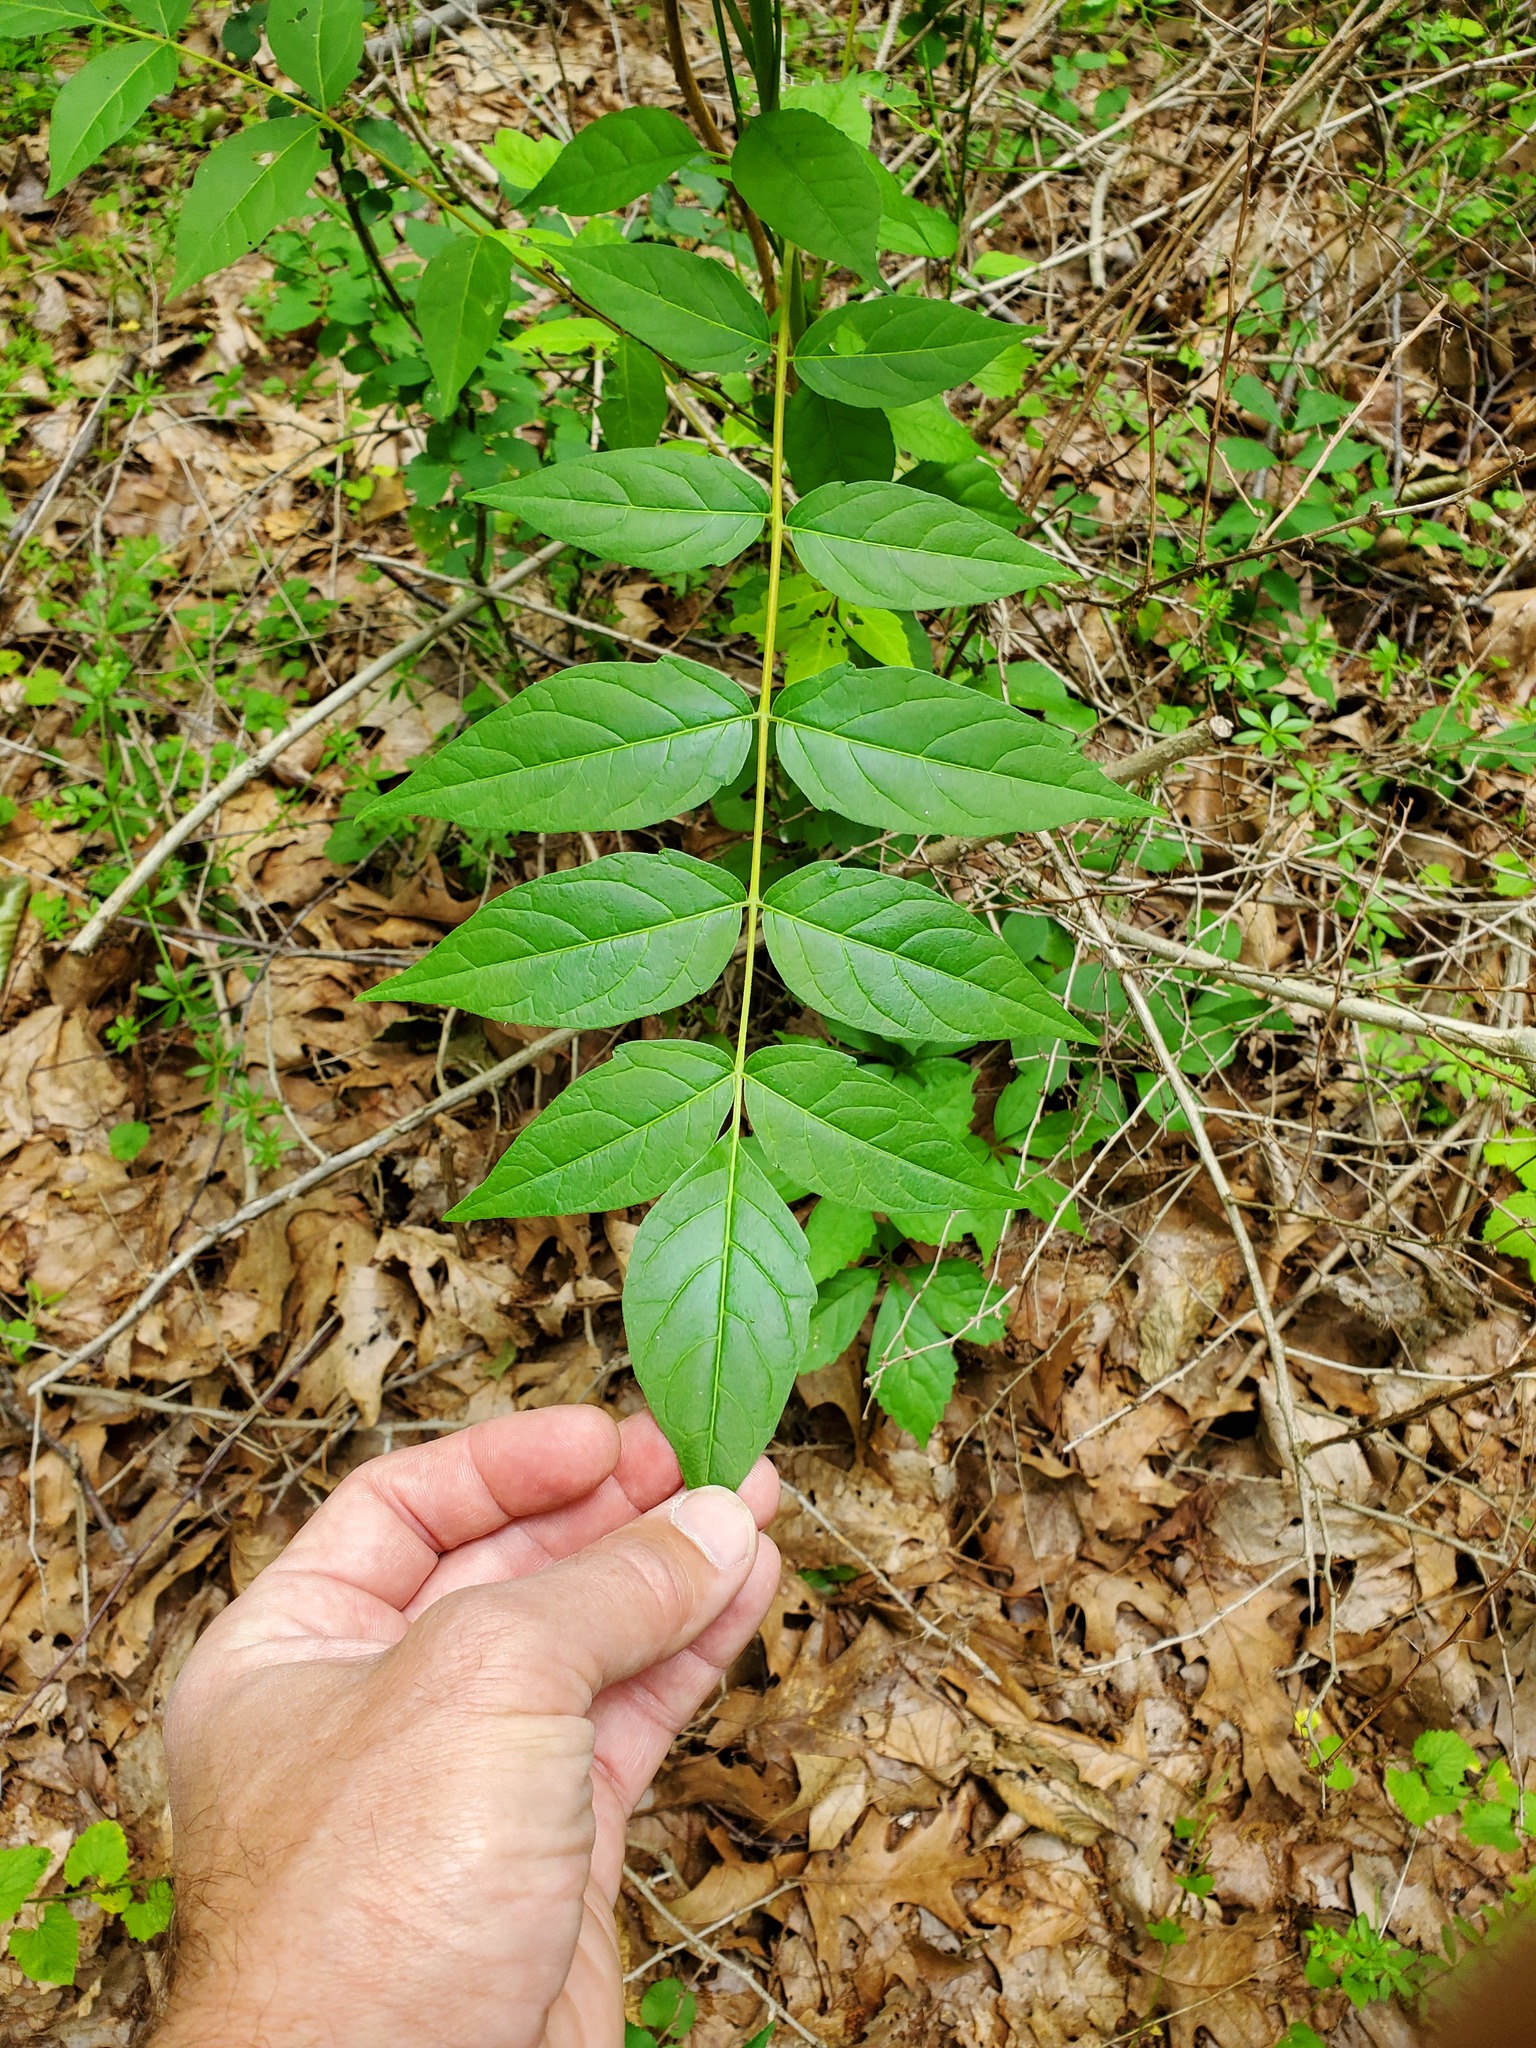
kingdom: Plantae
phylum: Tracheophyta
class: Magnoliopsida
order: Sapindales
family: Simaroubaceae
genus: Ailanthus
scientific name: Ailanthus altissima
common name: Tree-of-heaven
